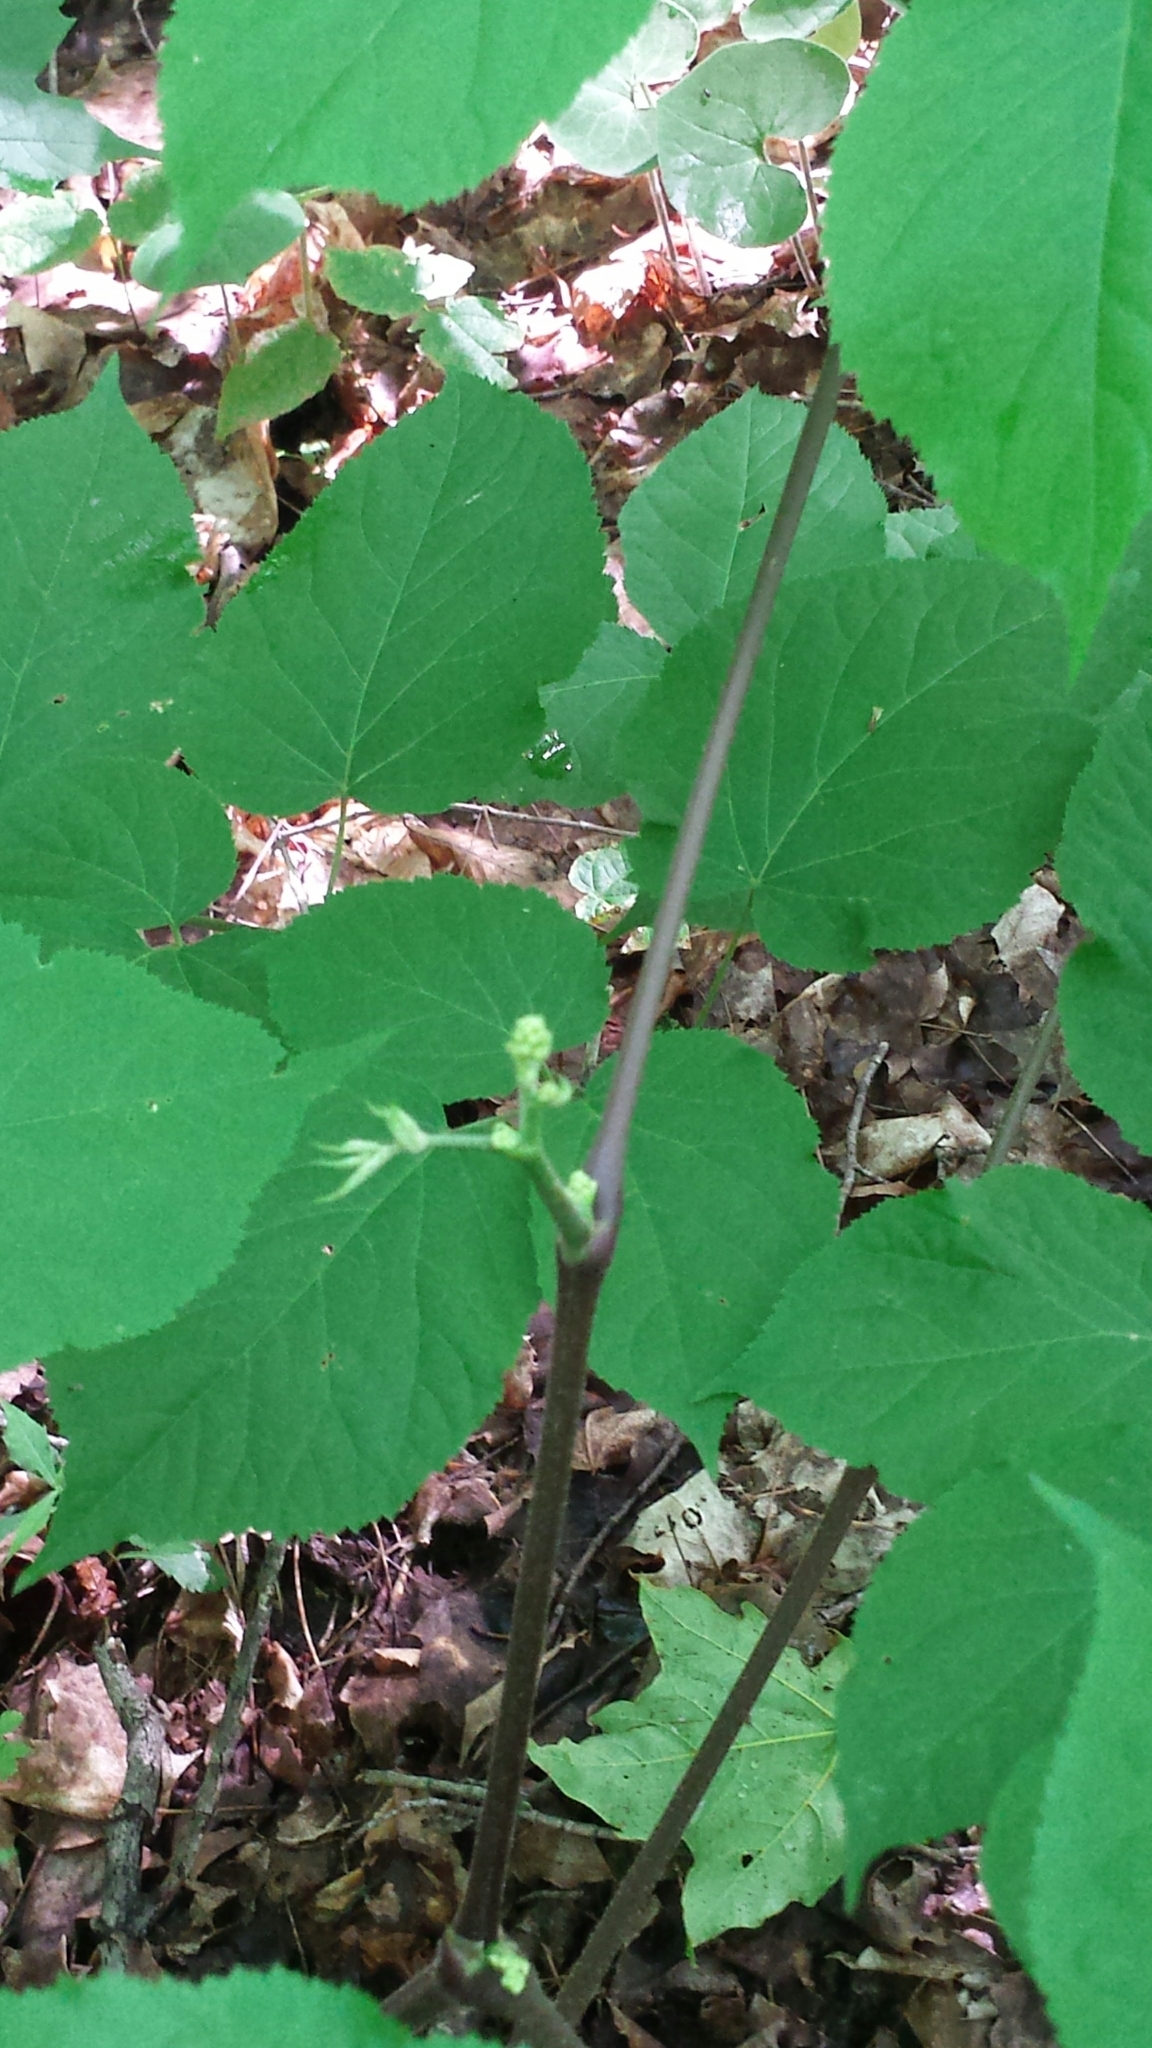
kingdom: Plantae
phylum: Tracheophyta
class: Magnoliopsida
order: Apiales
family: Araliaceae
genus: Aralia
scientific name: Aralia racemosa
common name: American-spikenard
